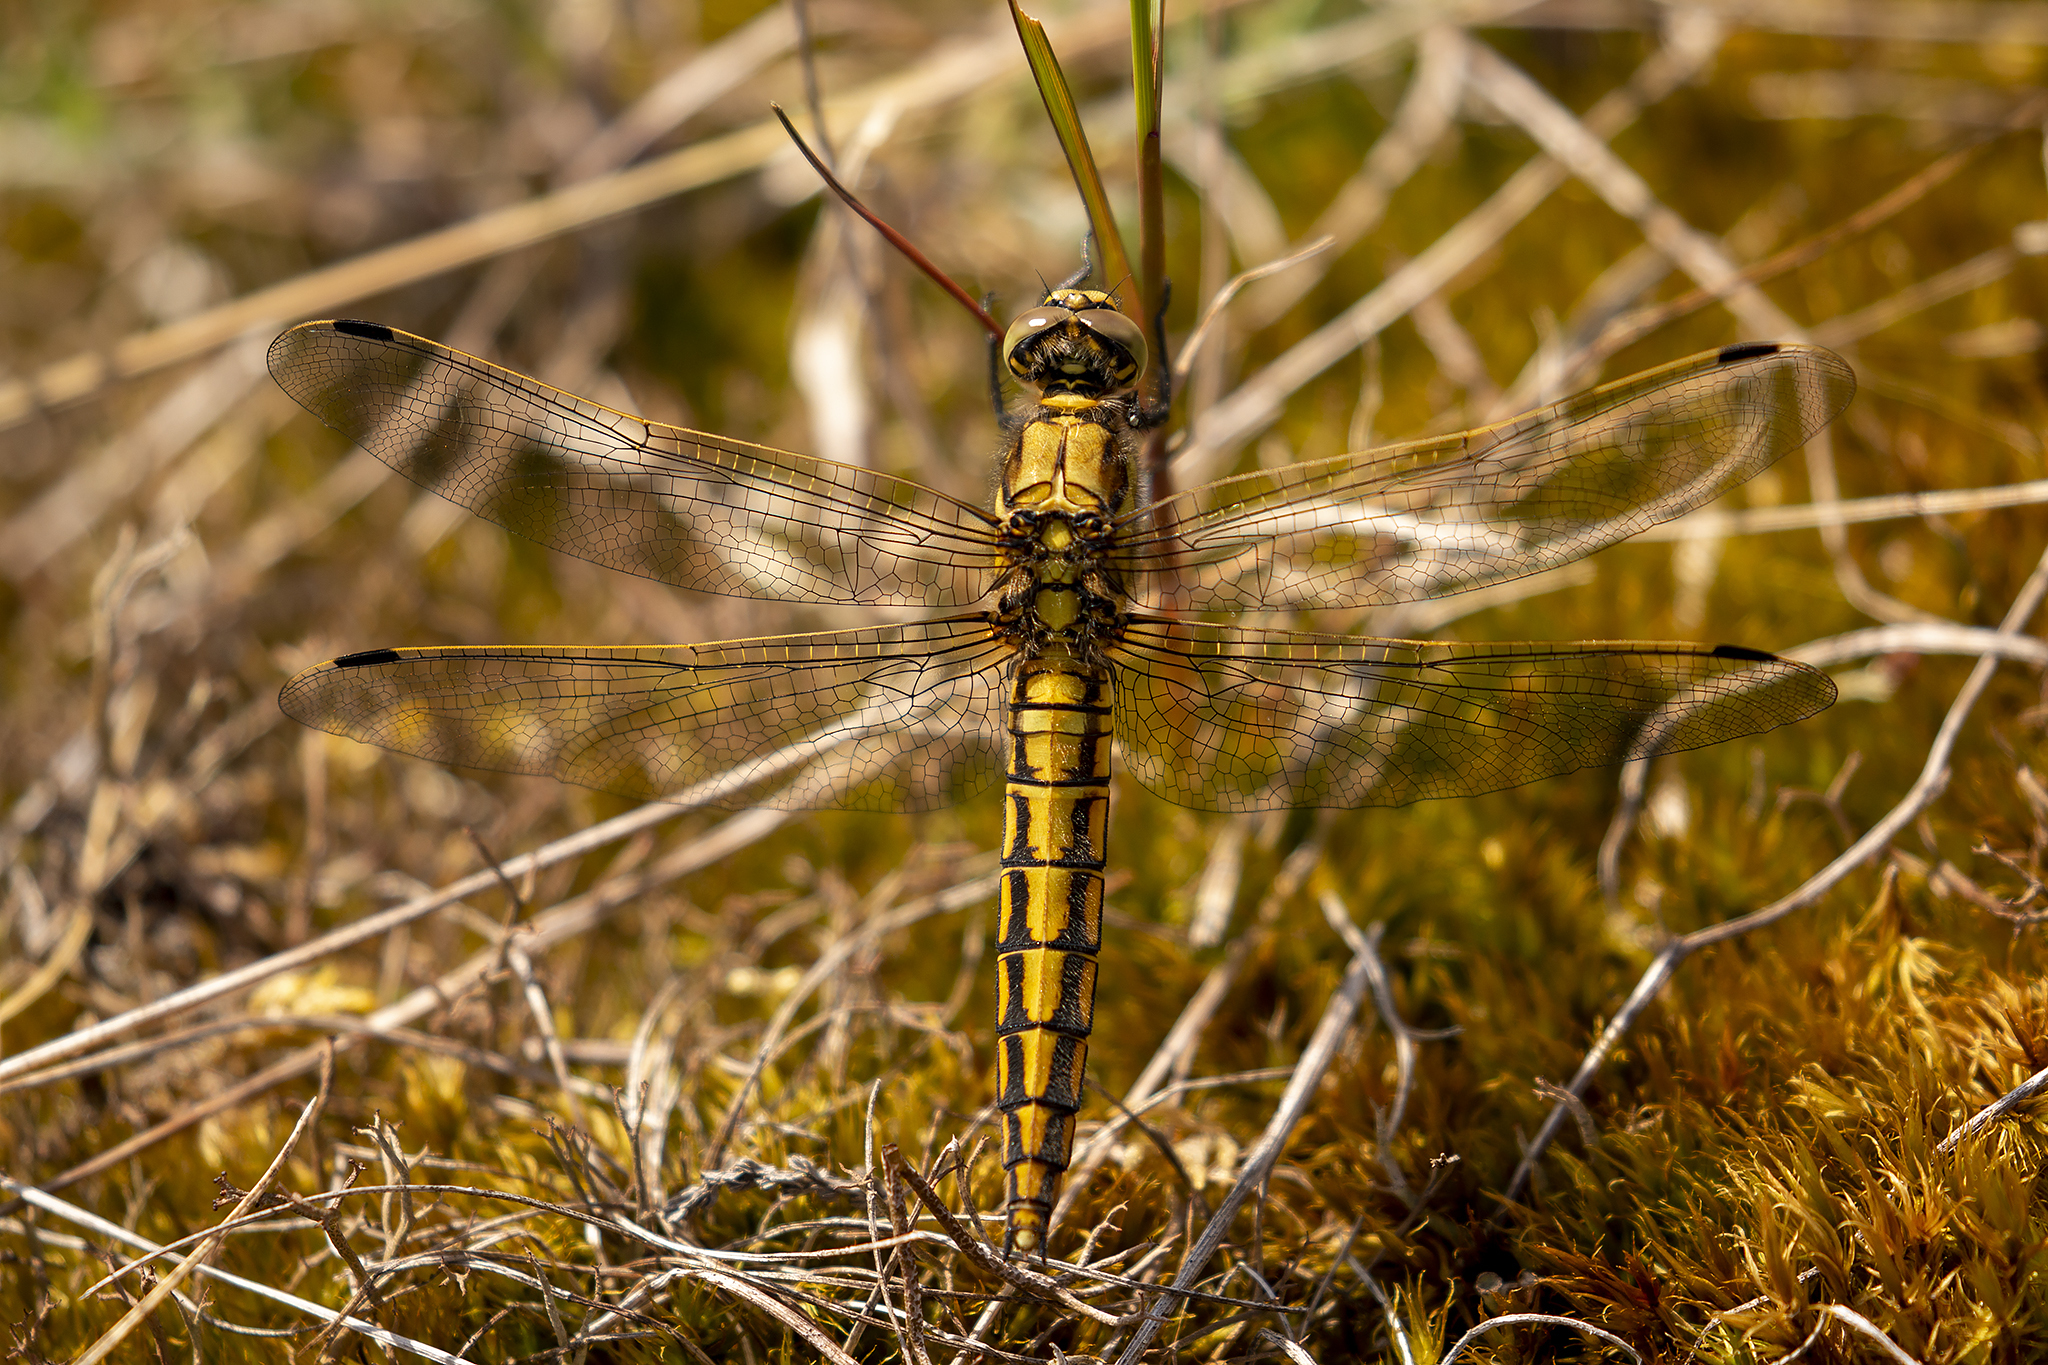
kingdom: Animalia
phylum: Arthropoda
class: Insecta
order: Odonata
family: Libellulidae
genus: Orthetrum
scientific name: Orthetrum cancellatum
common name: Black-tailed skimmer
